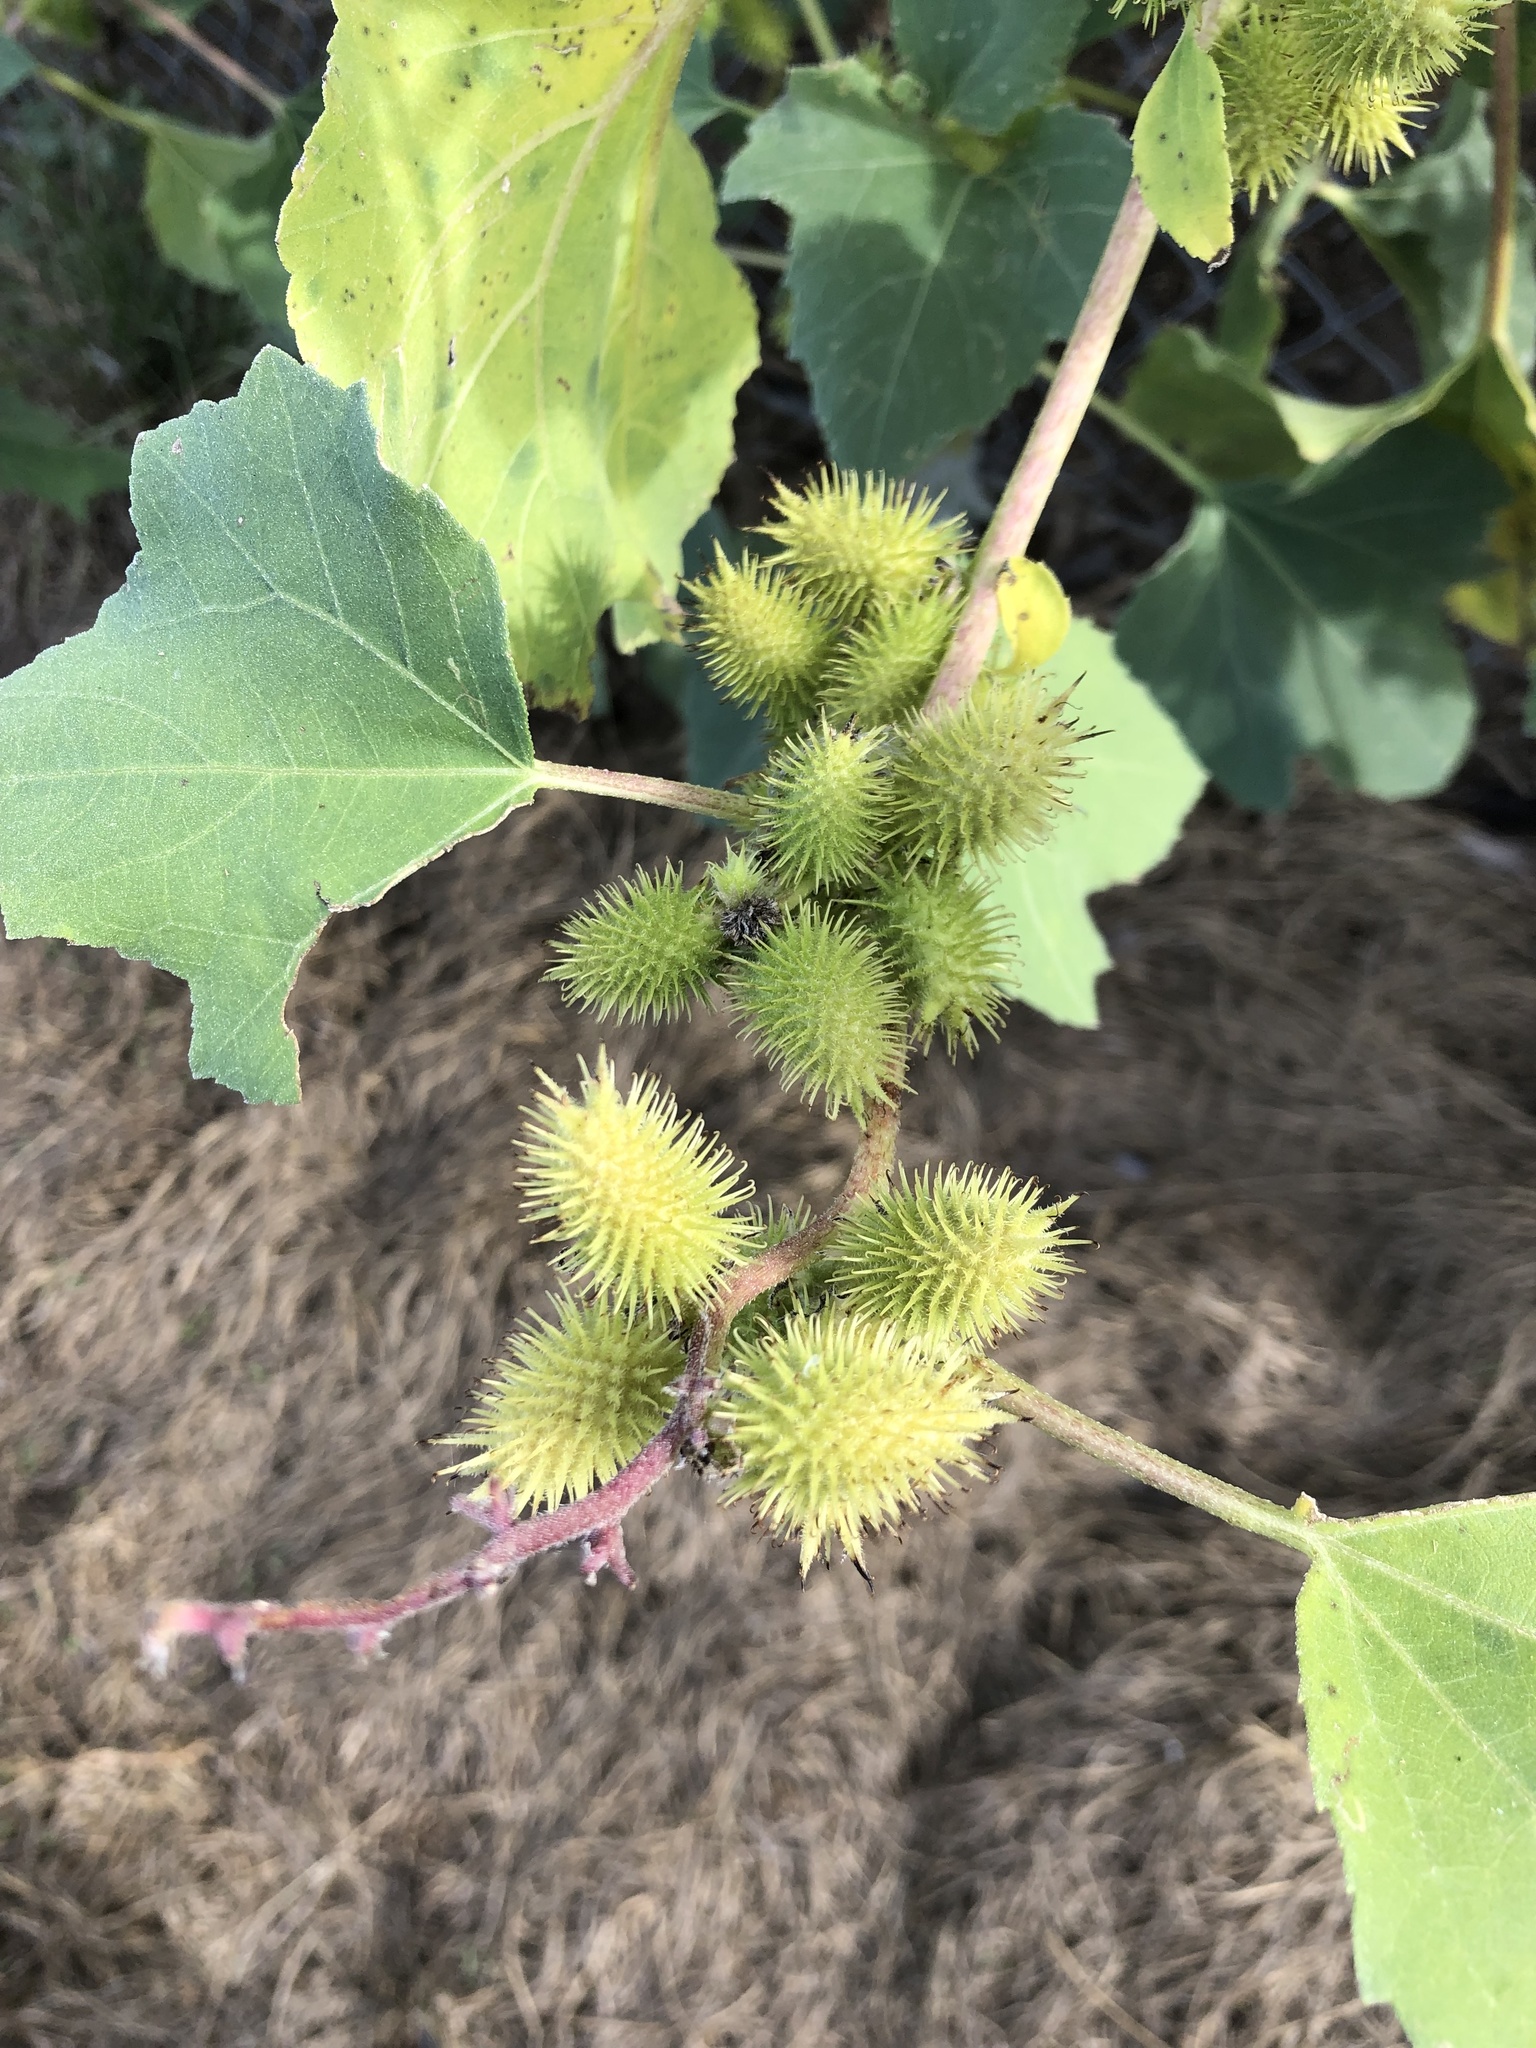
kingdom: Plantae
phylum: Tracheophyta
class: Magnoliopsida
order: Asterales
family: Asteraceae
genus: Xanthium
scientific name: Xanthium strumarium
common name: Rough cocklebur
